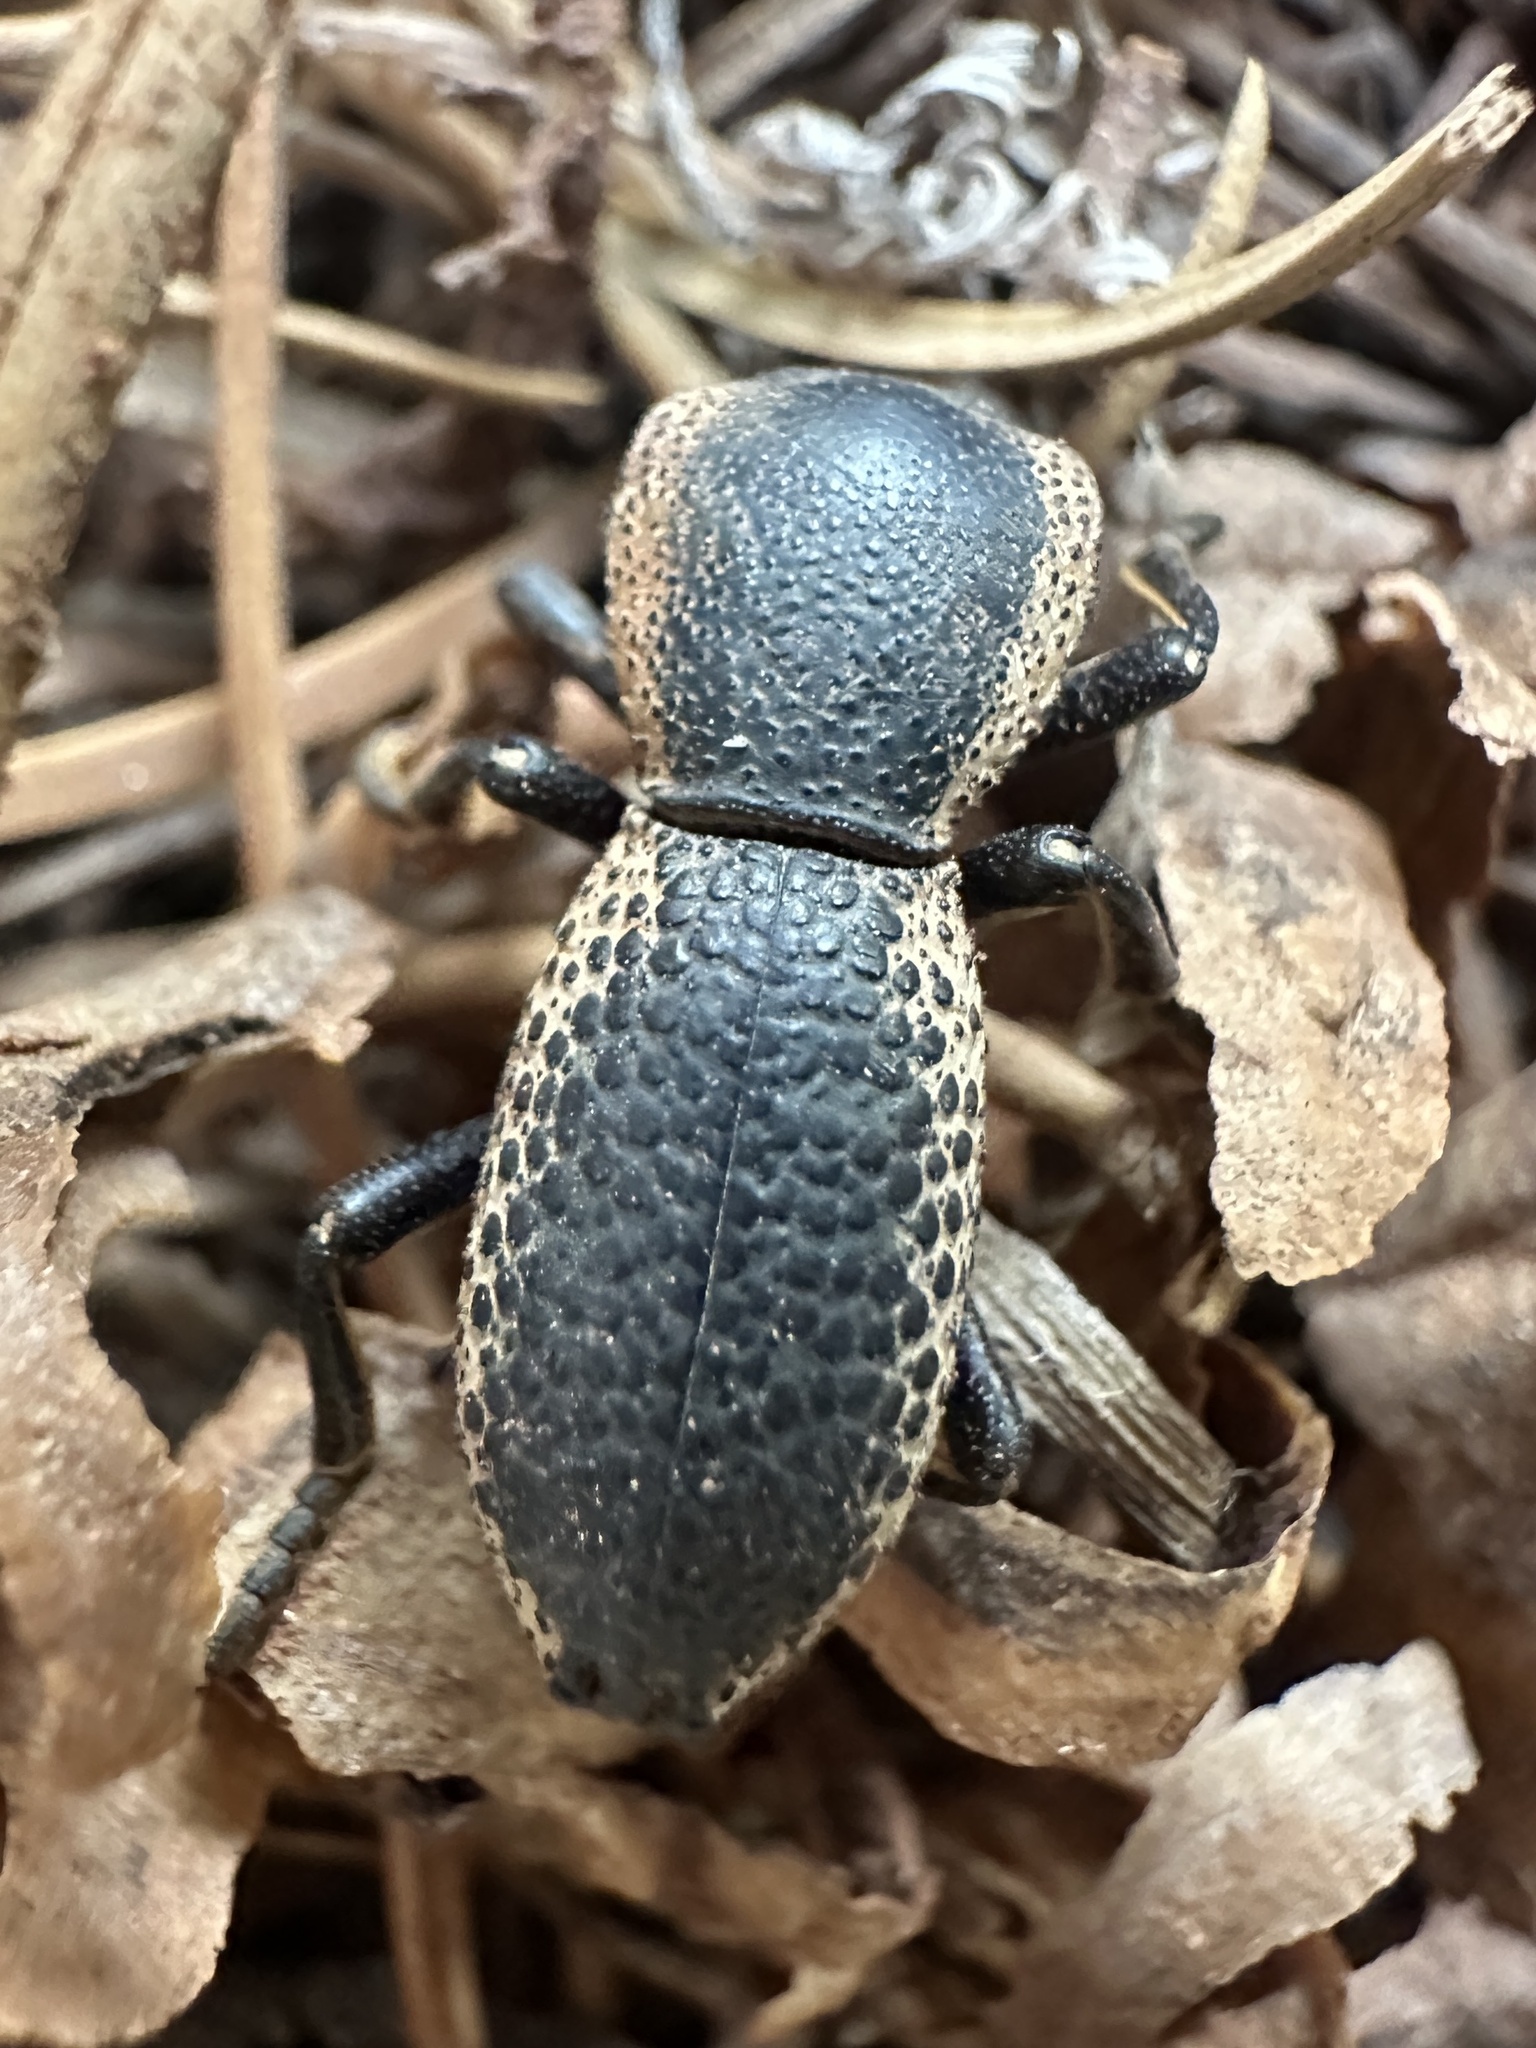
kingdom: Animalia
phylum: Arthropoda
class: Insecta
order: Coleoptera
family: Zopheridae
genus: Zopherus
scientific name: Zopherus elegans
